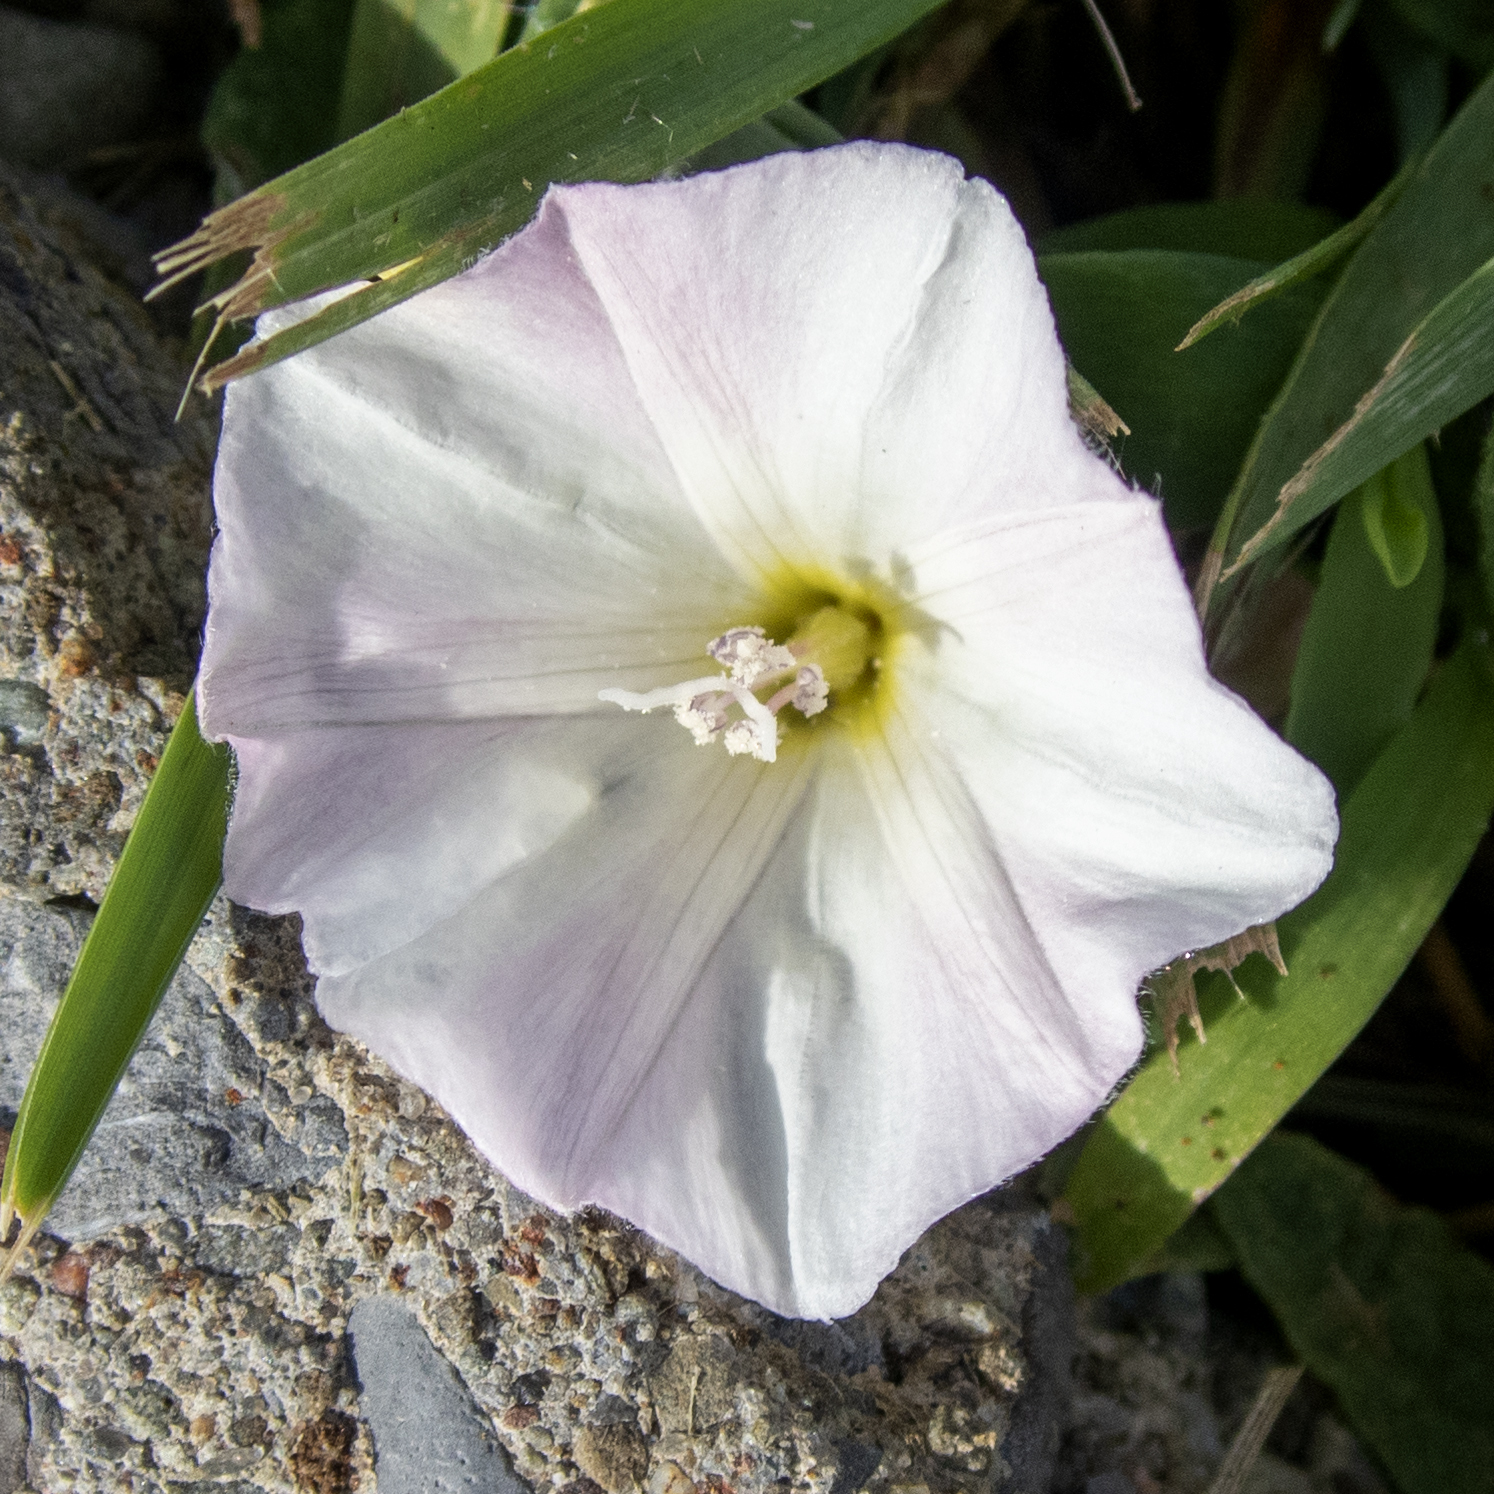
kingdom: Plantae
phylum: Tracheophyta
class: Magnoliopsida
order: Solanales
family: Convolvulaceae
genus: Convolvulus
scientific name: Convolvulus arvensis
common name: Field bindweed
